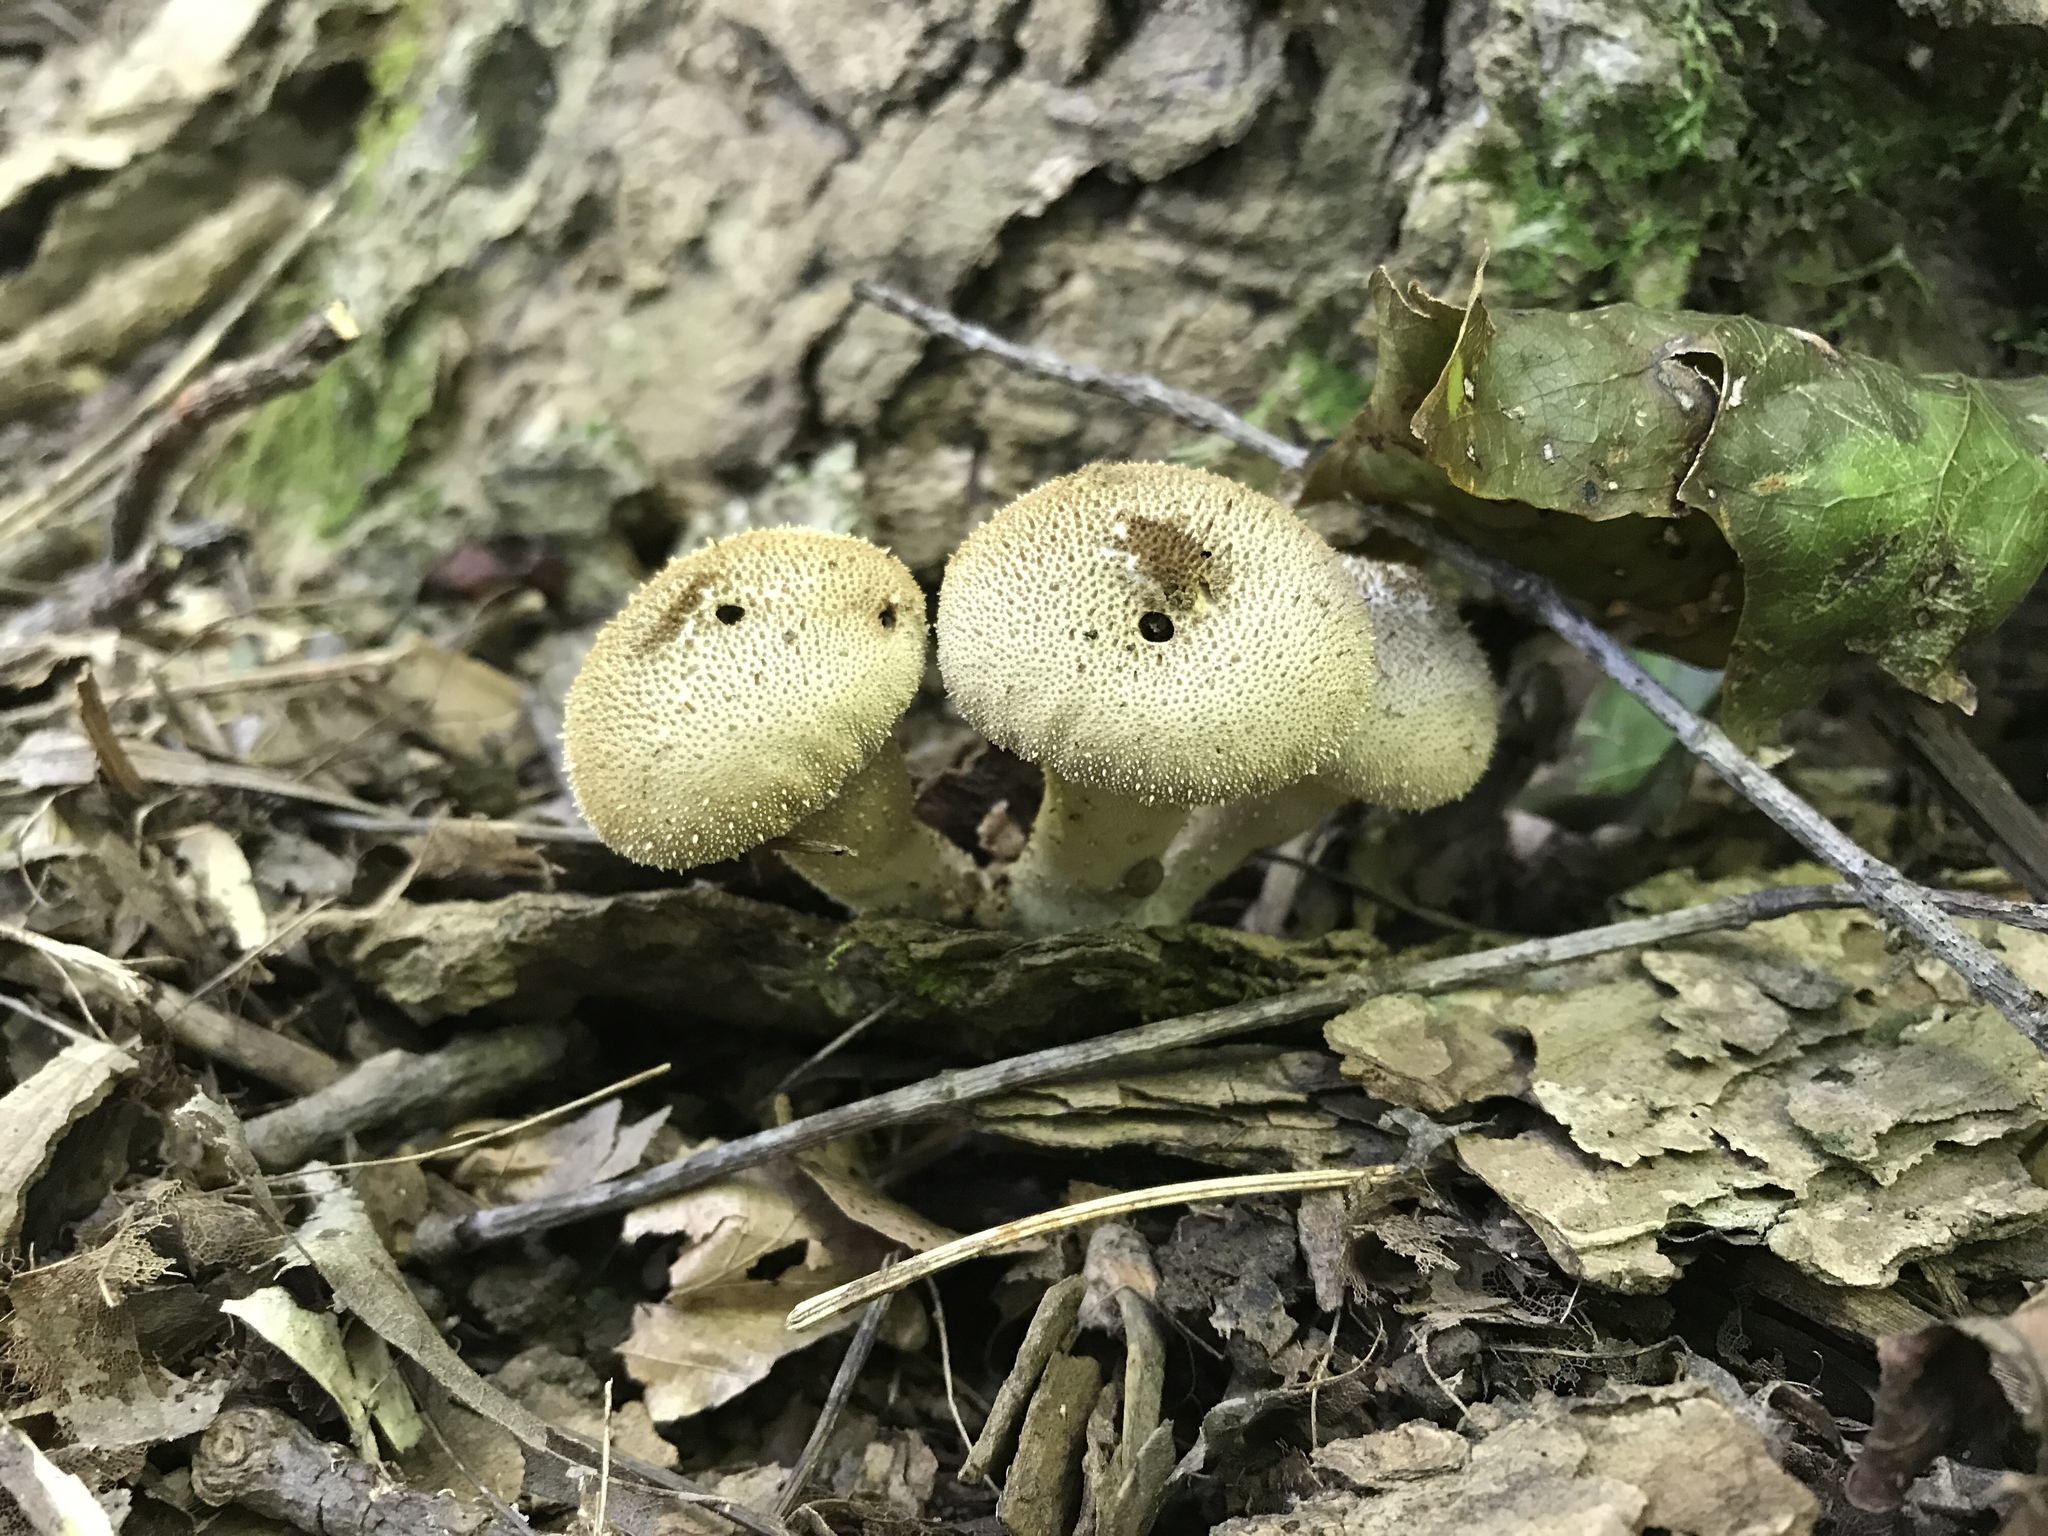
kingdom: Fungi
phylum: Basidiomycota
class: Agaricomycetes
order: Agaricales
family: Lycoperdaceae
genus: Lycoperdon
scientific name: Lycoperdon perlatum
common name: Common puffball
